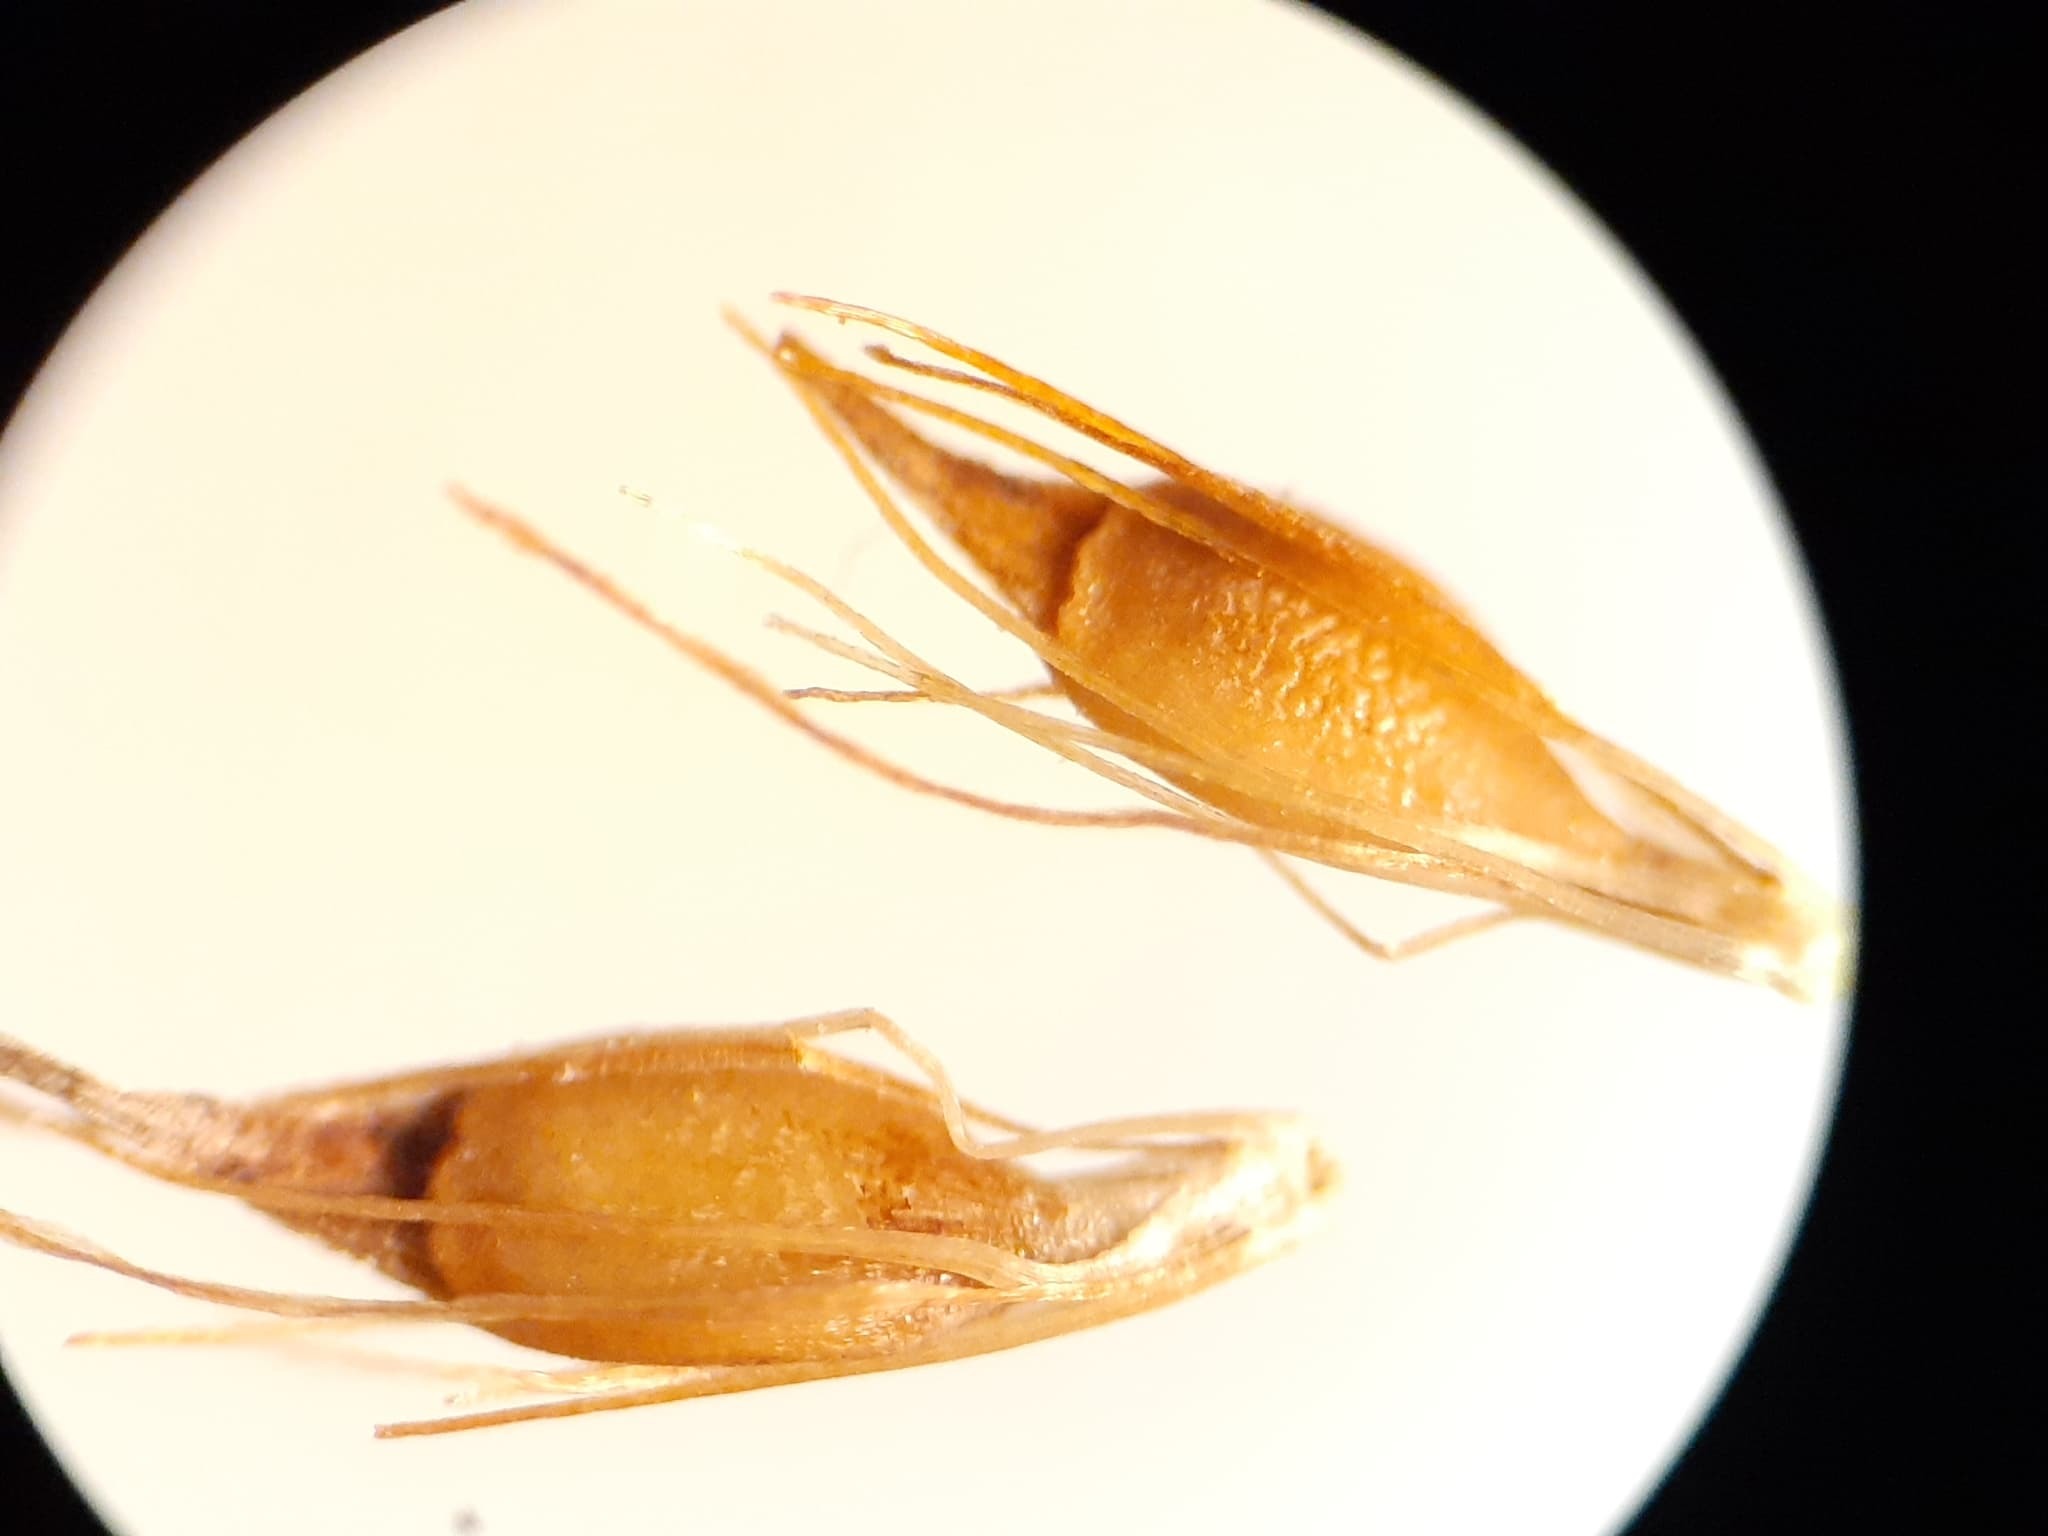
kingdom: Plantae
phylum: Tracheophyta
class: Liliopsida
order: Poales
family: Cyperaceae
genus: Rhynchospora
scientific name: Rhynchospora capillacea
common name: Capillary beakrush
